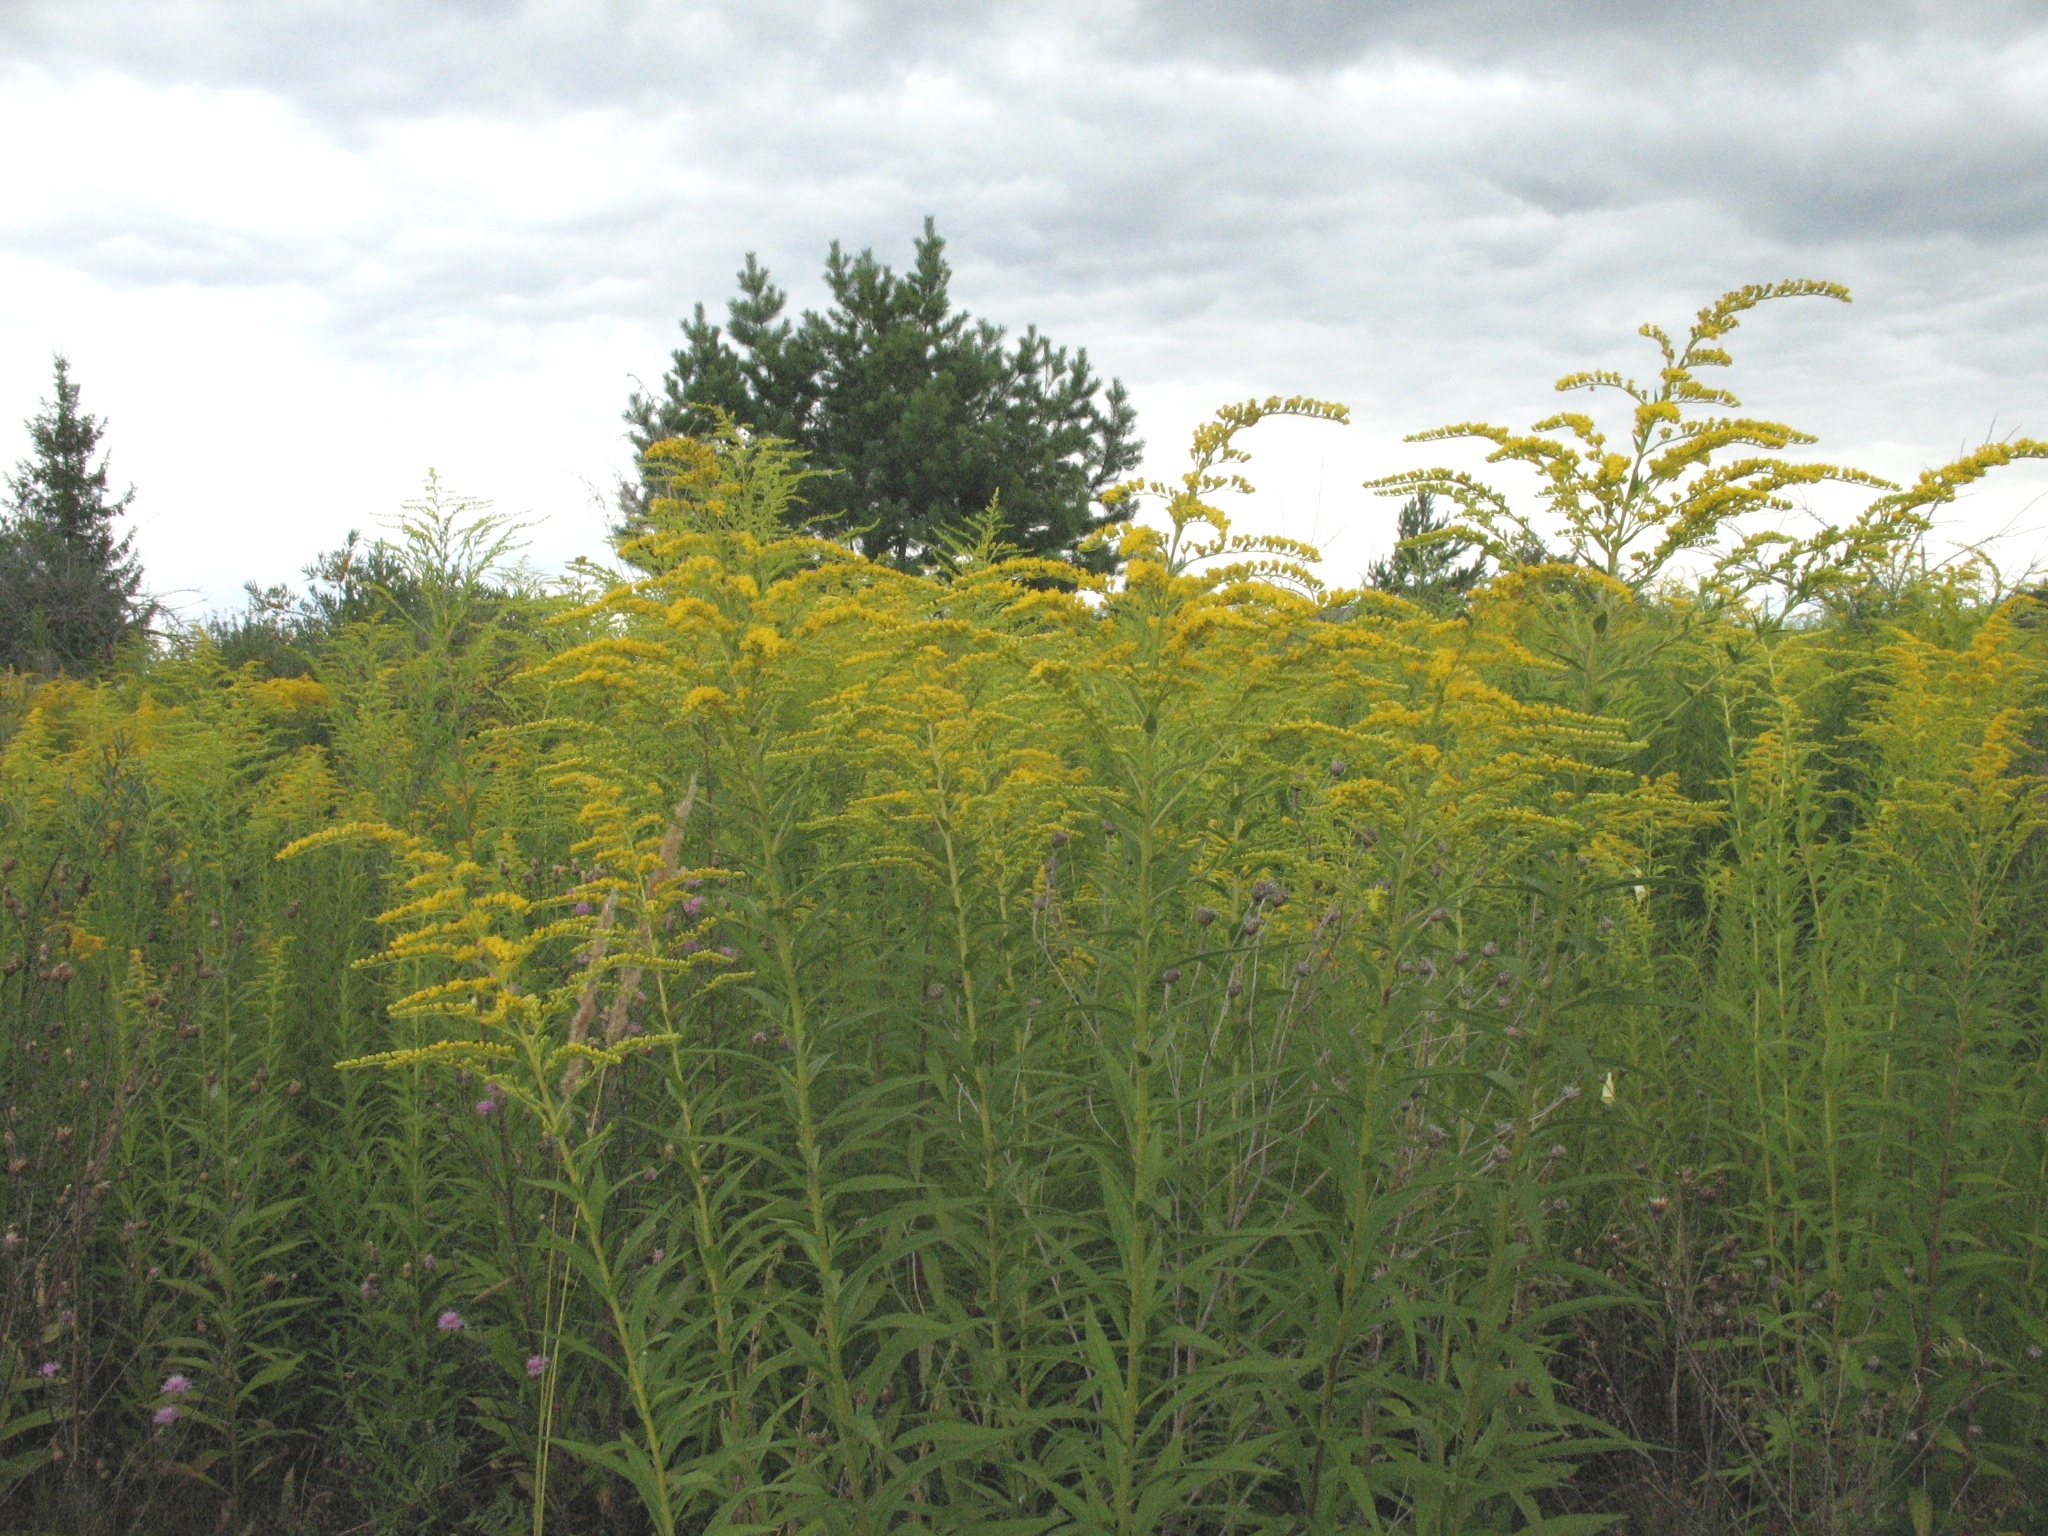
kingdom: Plantae
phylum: Tracheophyta
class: Magnoliopsida
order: Asterales
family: Asteraceae
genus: Solidago
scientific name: Solidago canadensis
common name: Canada goldenrod
